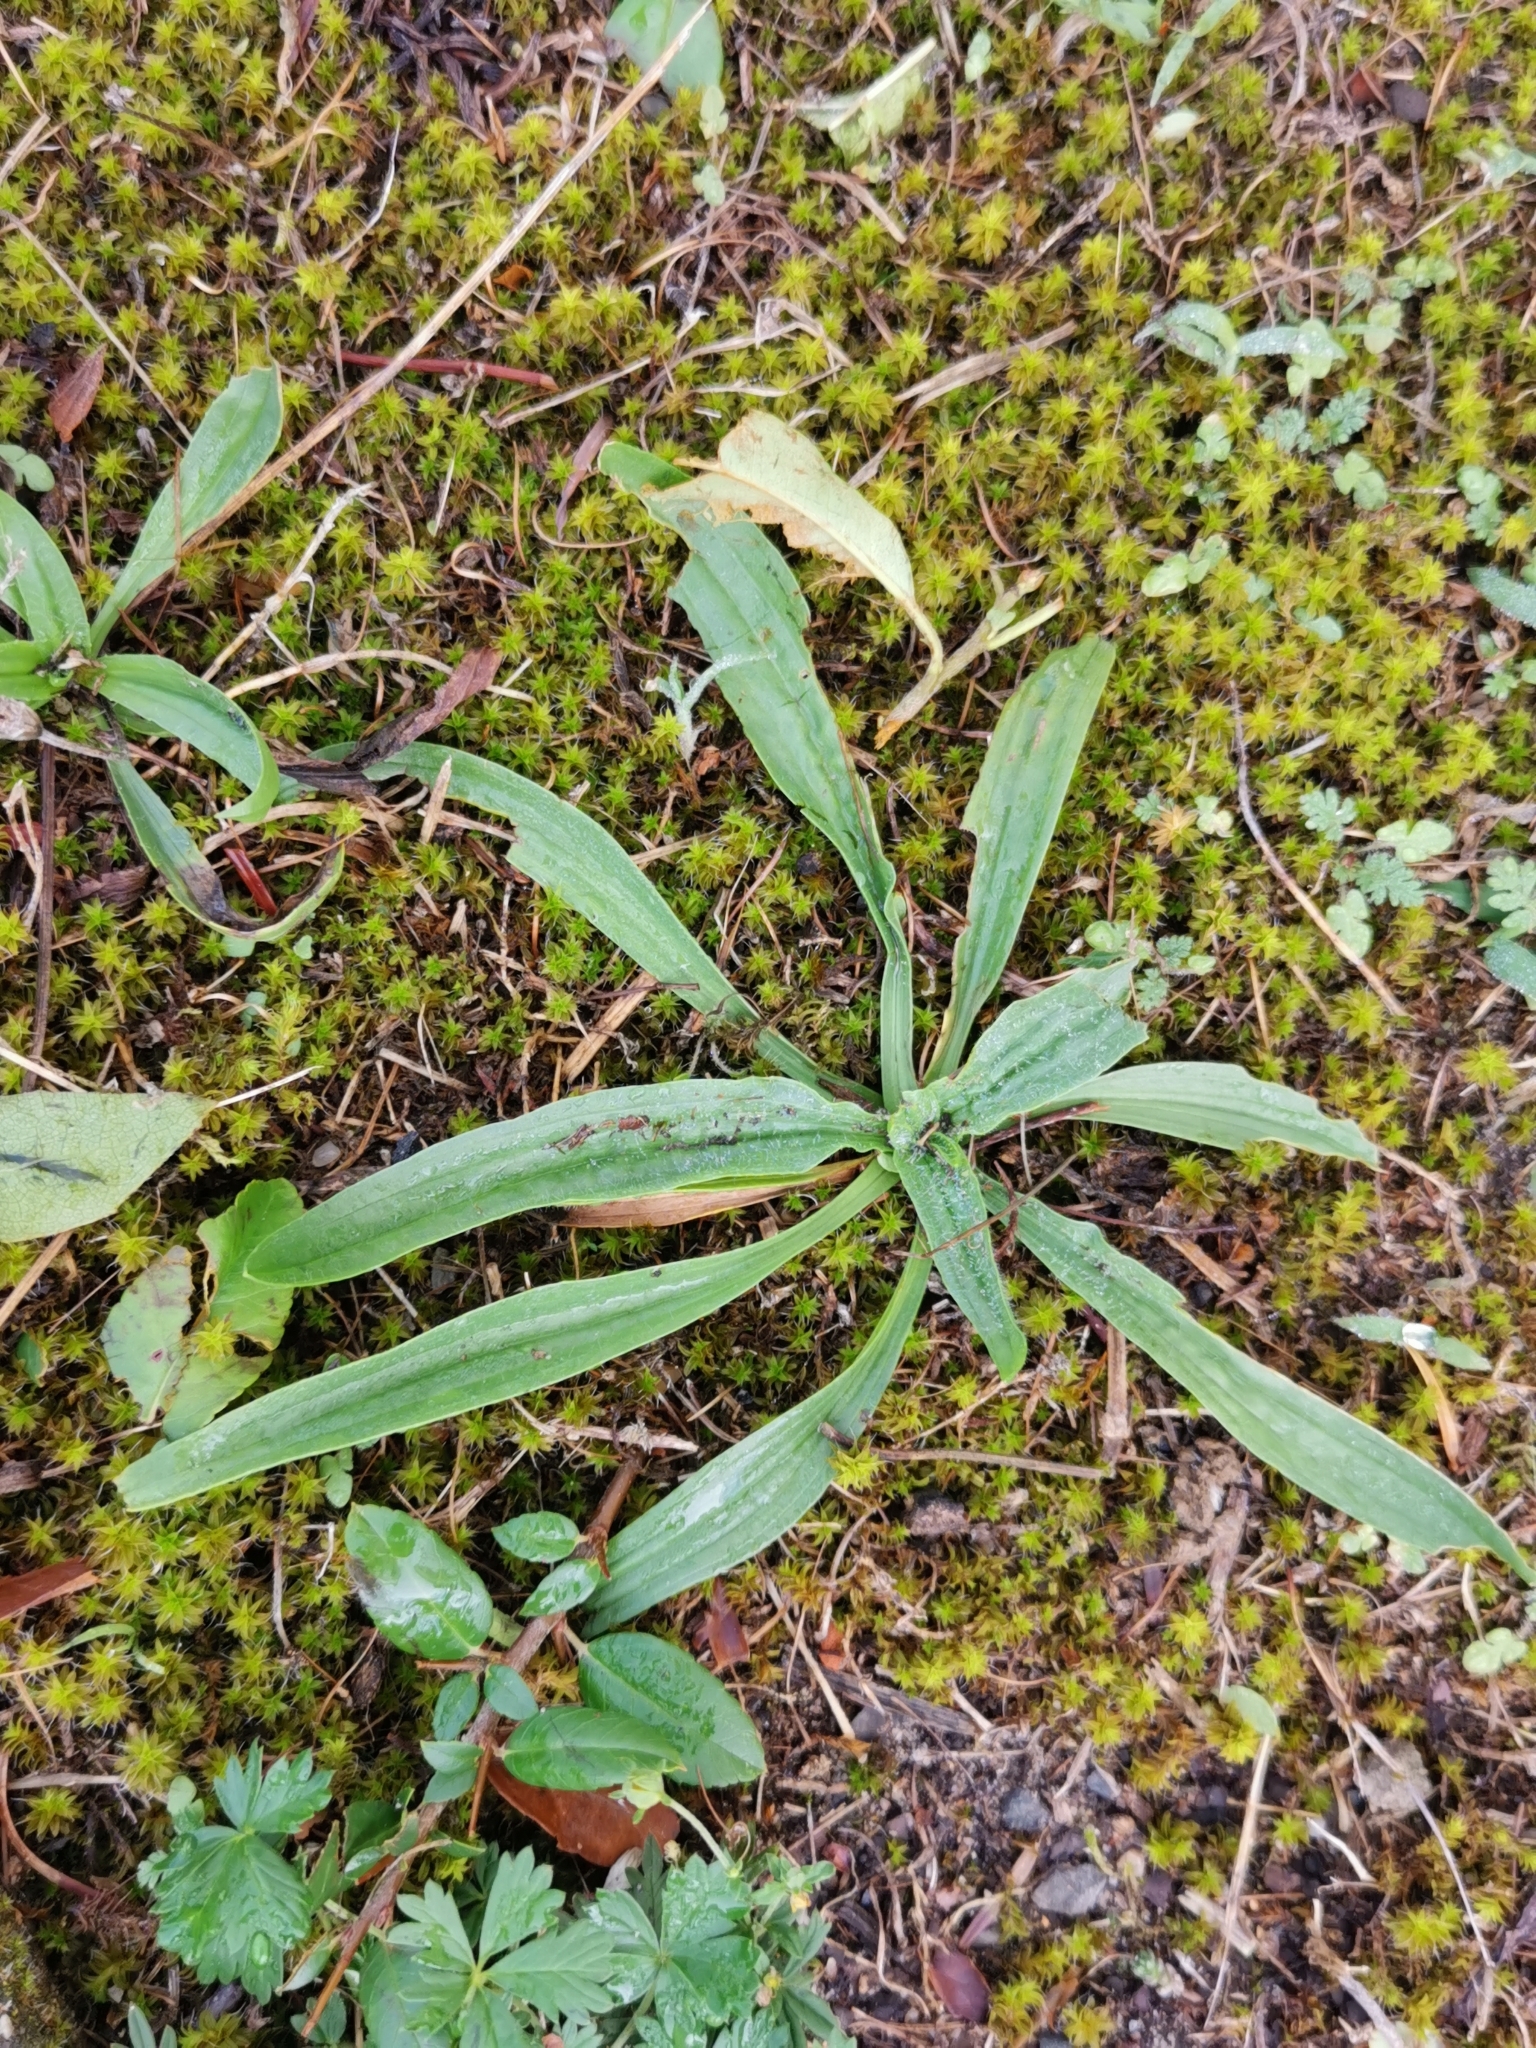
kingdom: Plantae
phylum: Tracheophyta
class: Magnoliopsida
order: Lamiales
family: Plantaginaceae
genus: Plantago
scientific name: Plantago lanceolata
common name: Ribwort plantain
